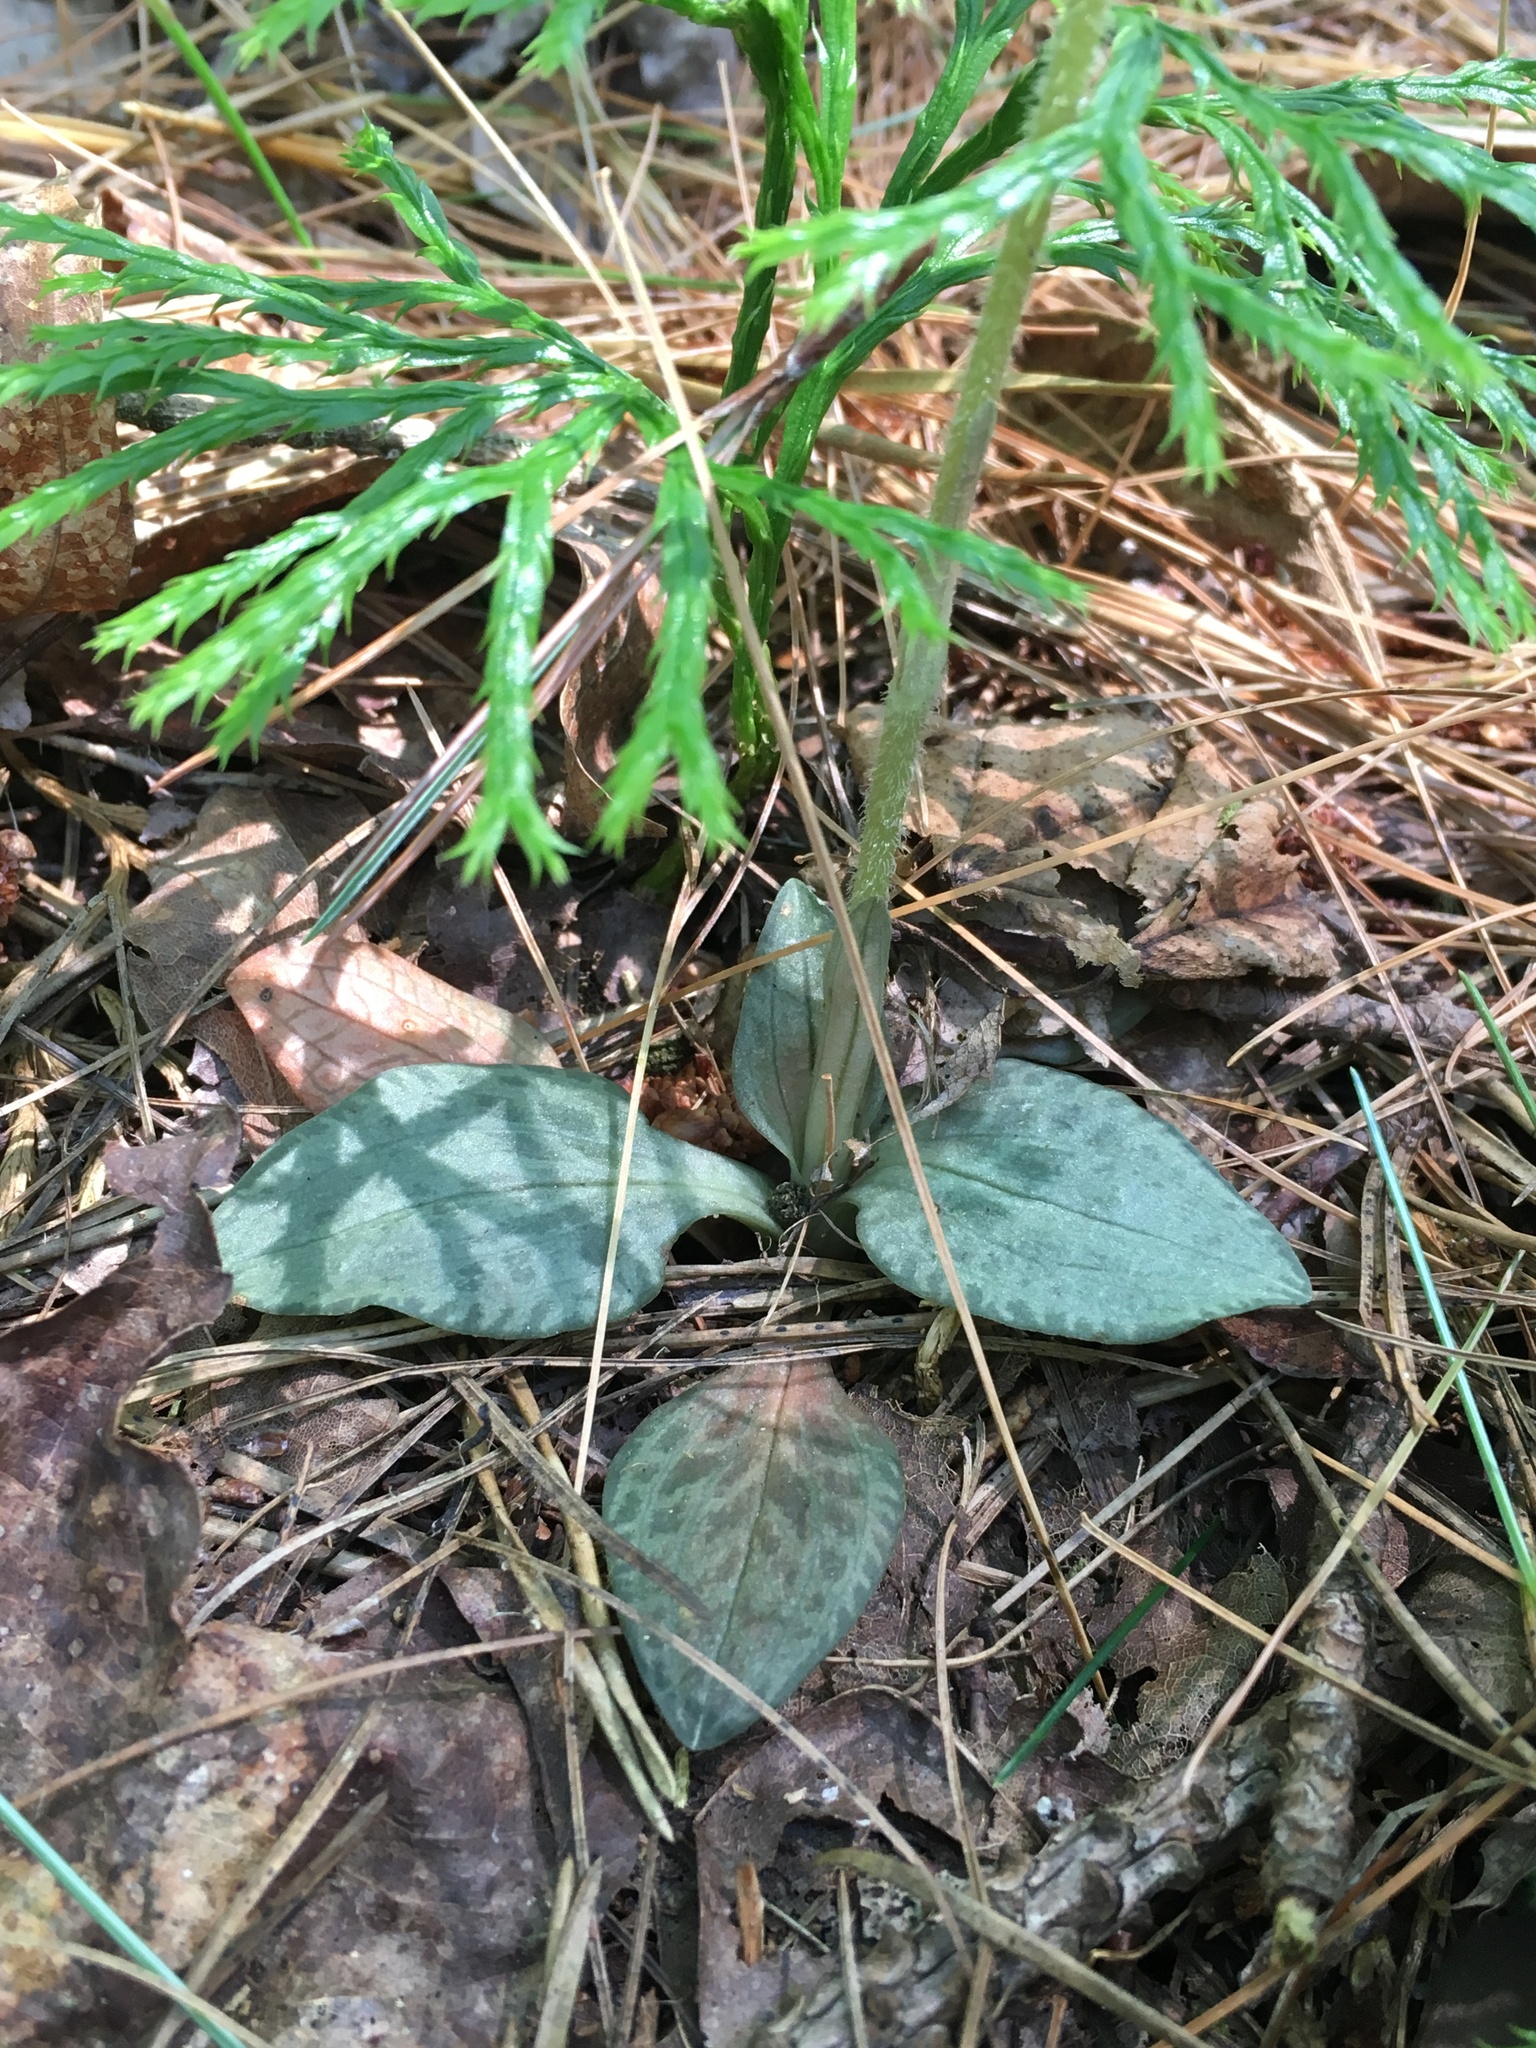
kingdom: Plantae
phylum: Tracheophyta
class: Liliopsida
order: Asparagales
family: Orchidaceae
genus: Goodyera
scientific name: Goodyera tesselata
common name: Checkered rattlesnake-plantain
